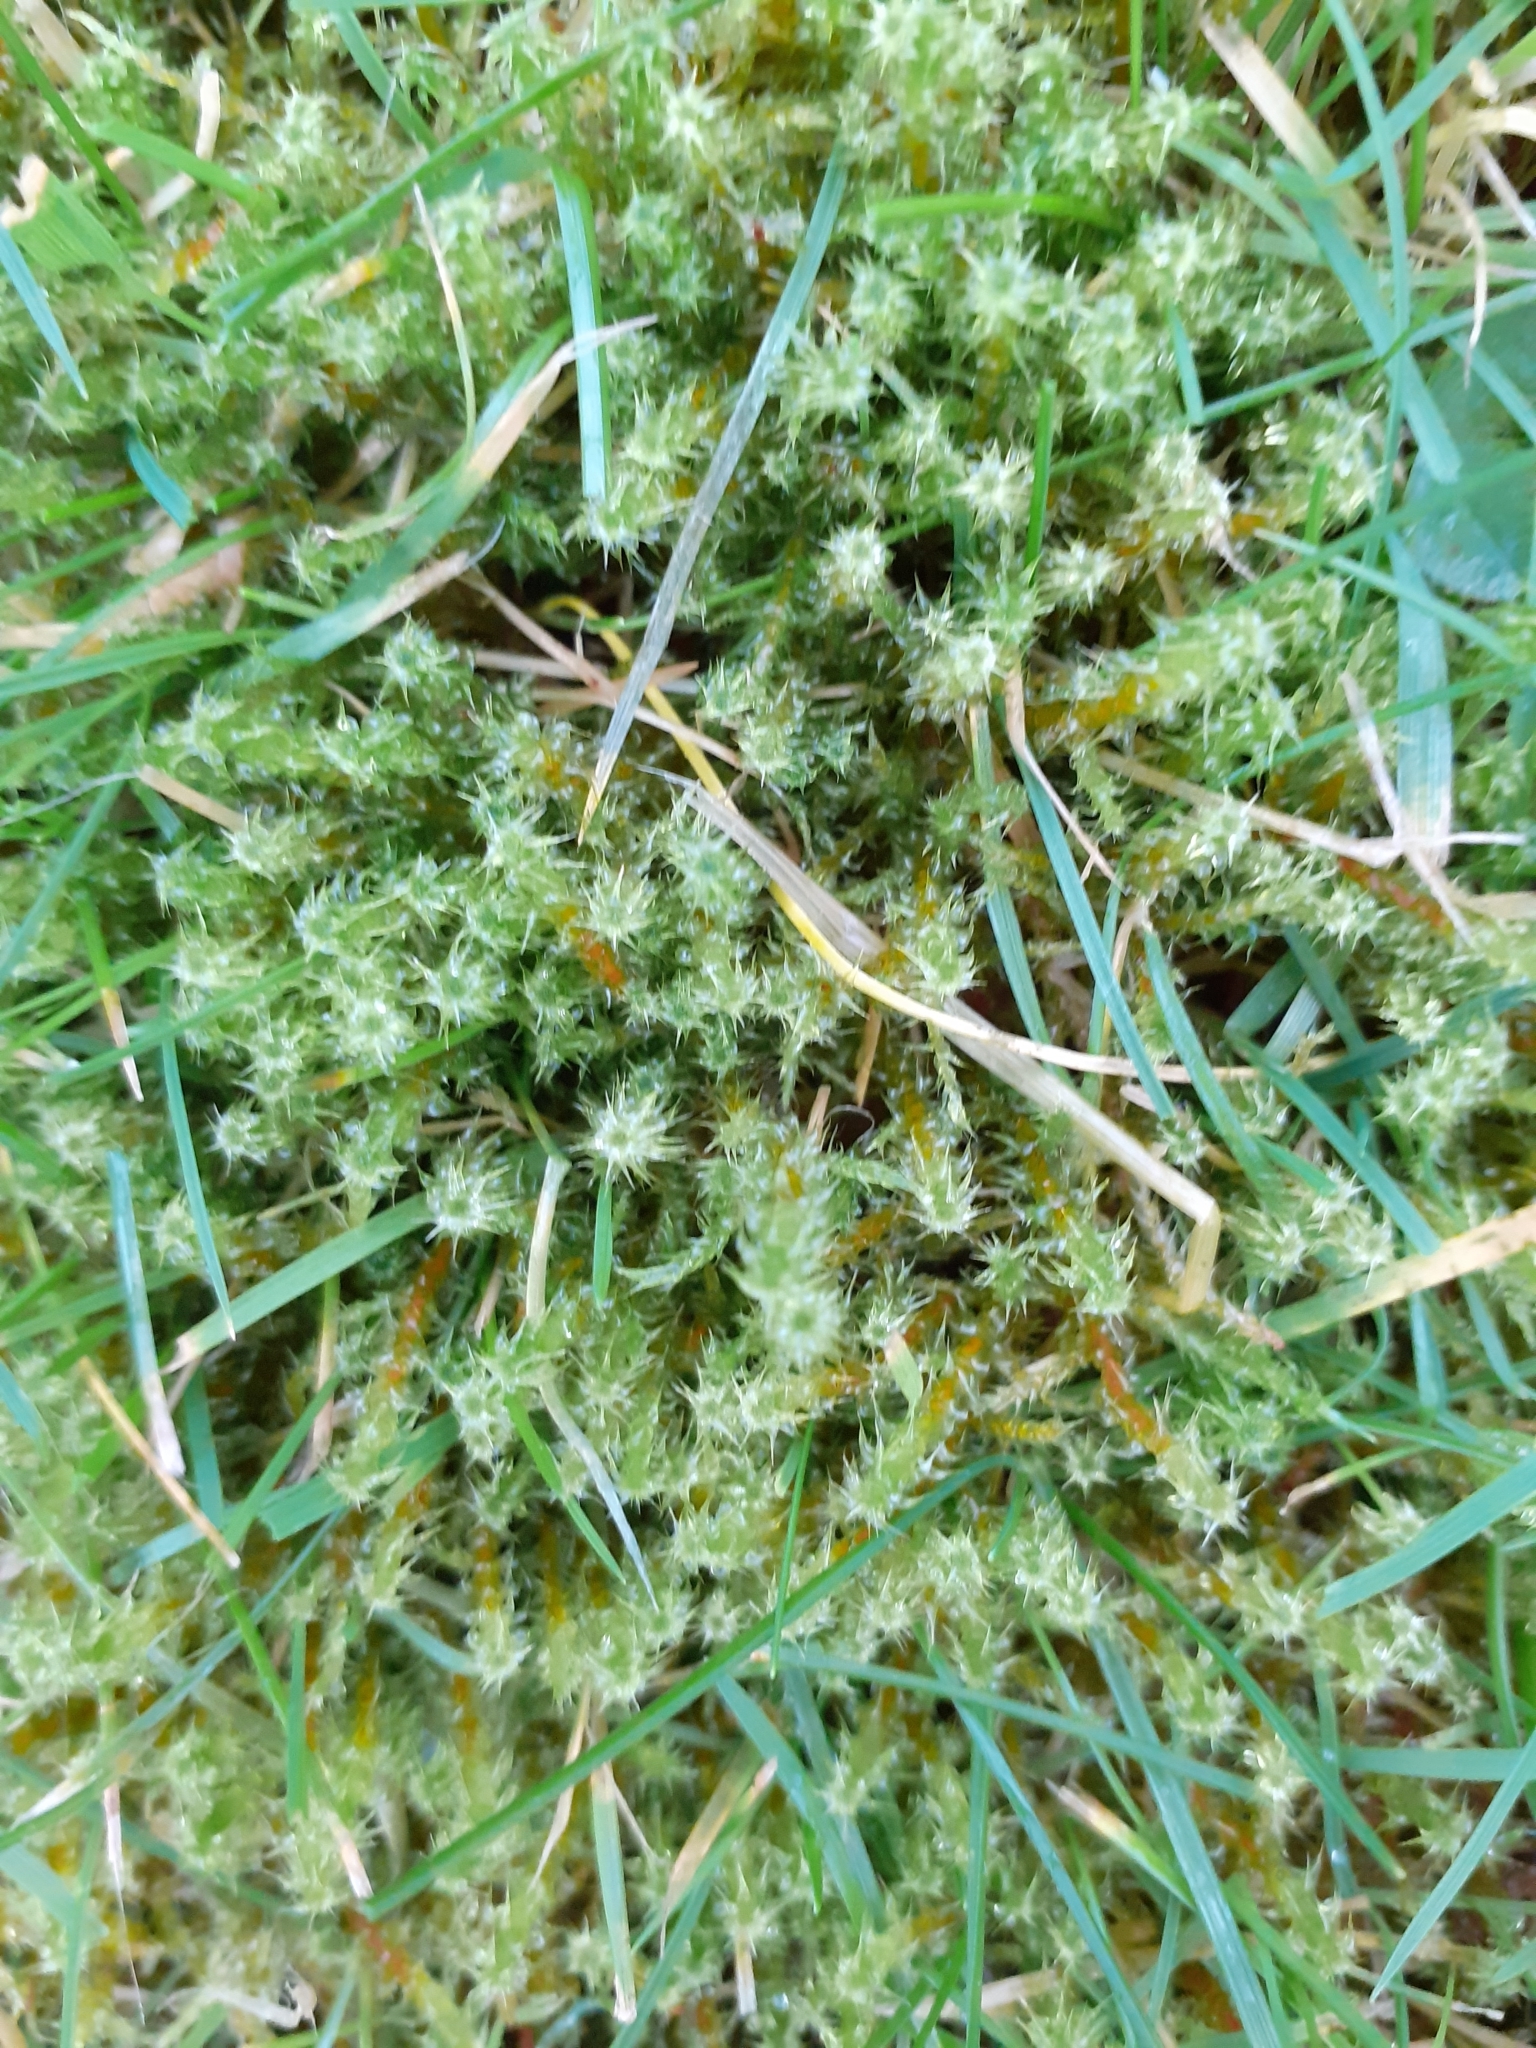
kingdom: Plantae
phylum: Bryophyta
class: Bryopsida
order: Hypnales
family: Hylocomiaceae
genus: Rhytidiadelphus
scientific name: Rhytidiadelphus squarrosus
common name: Springy turf-moss
